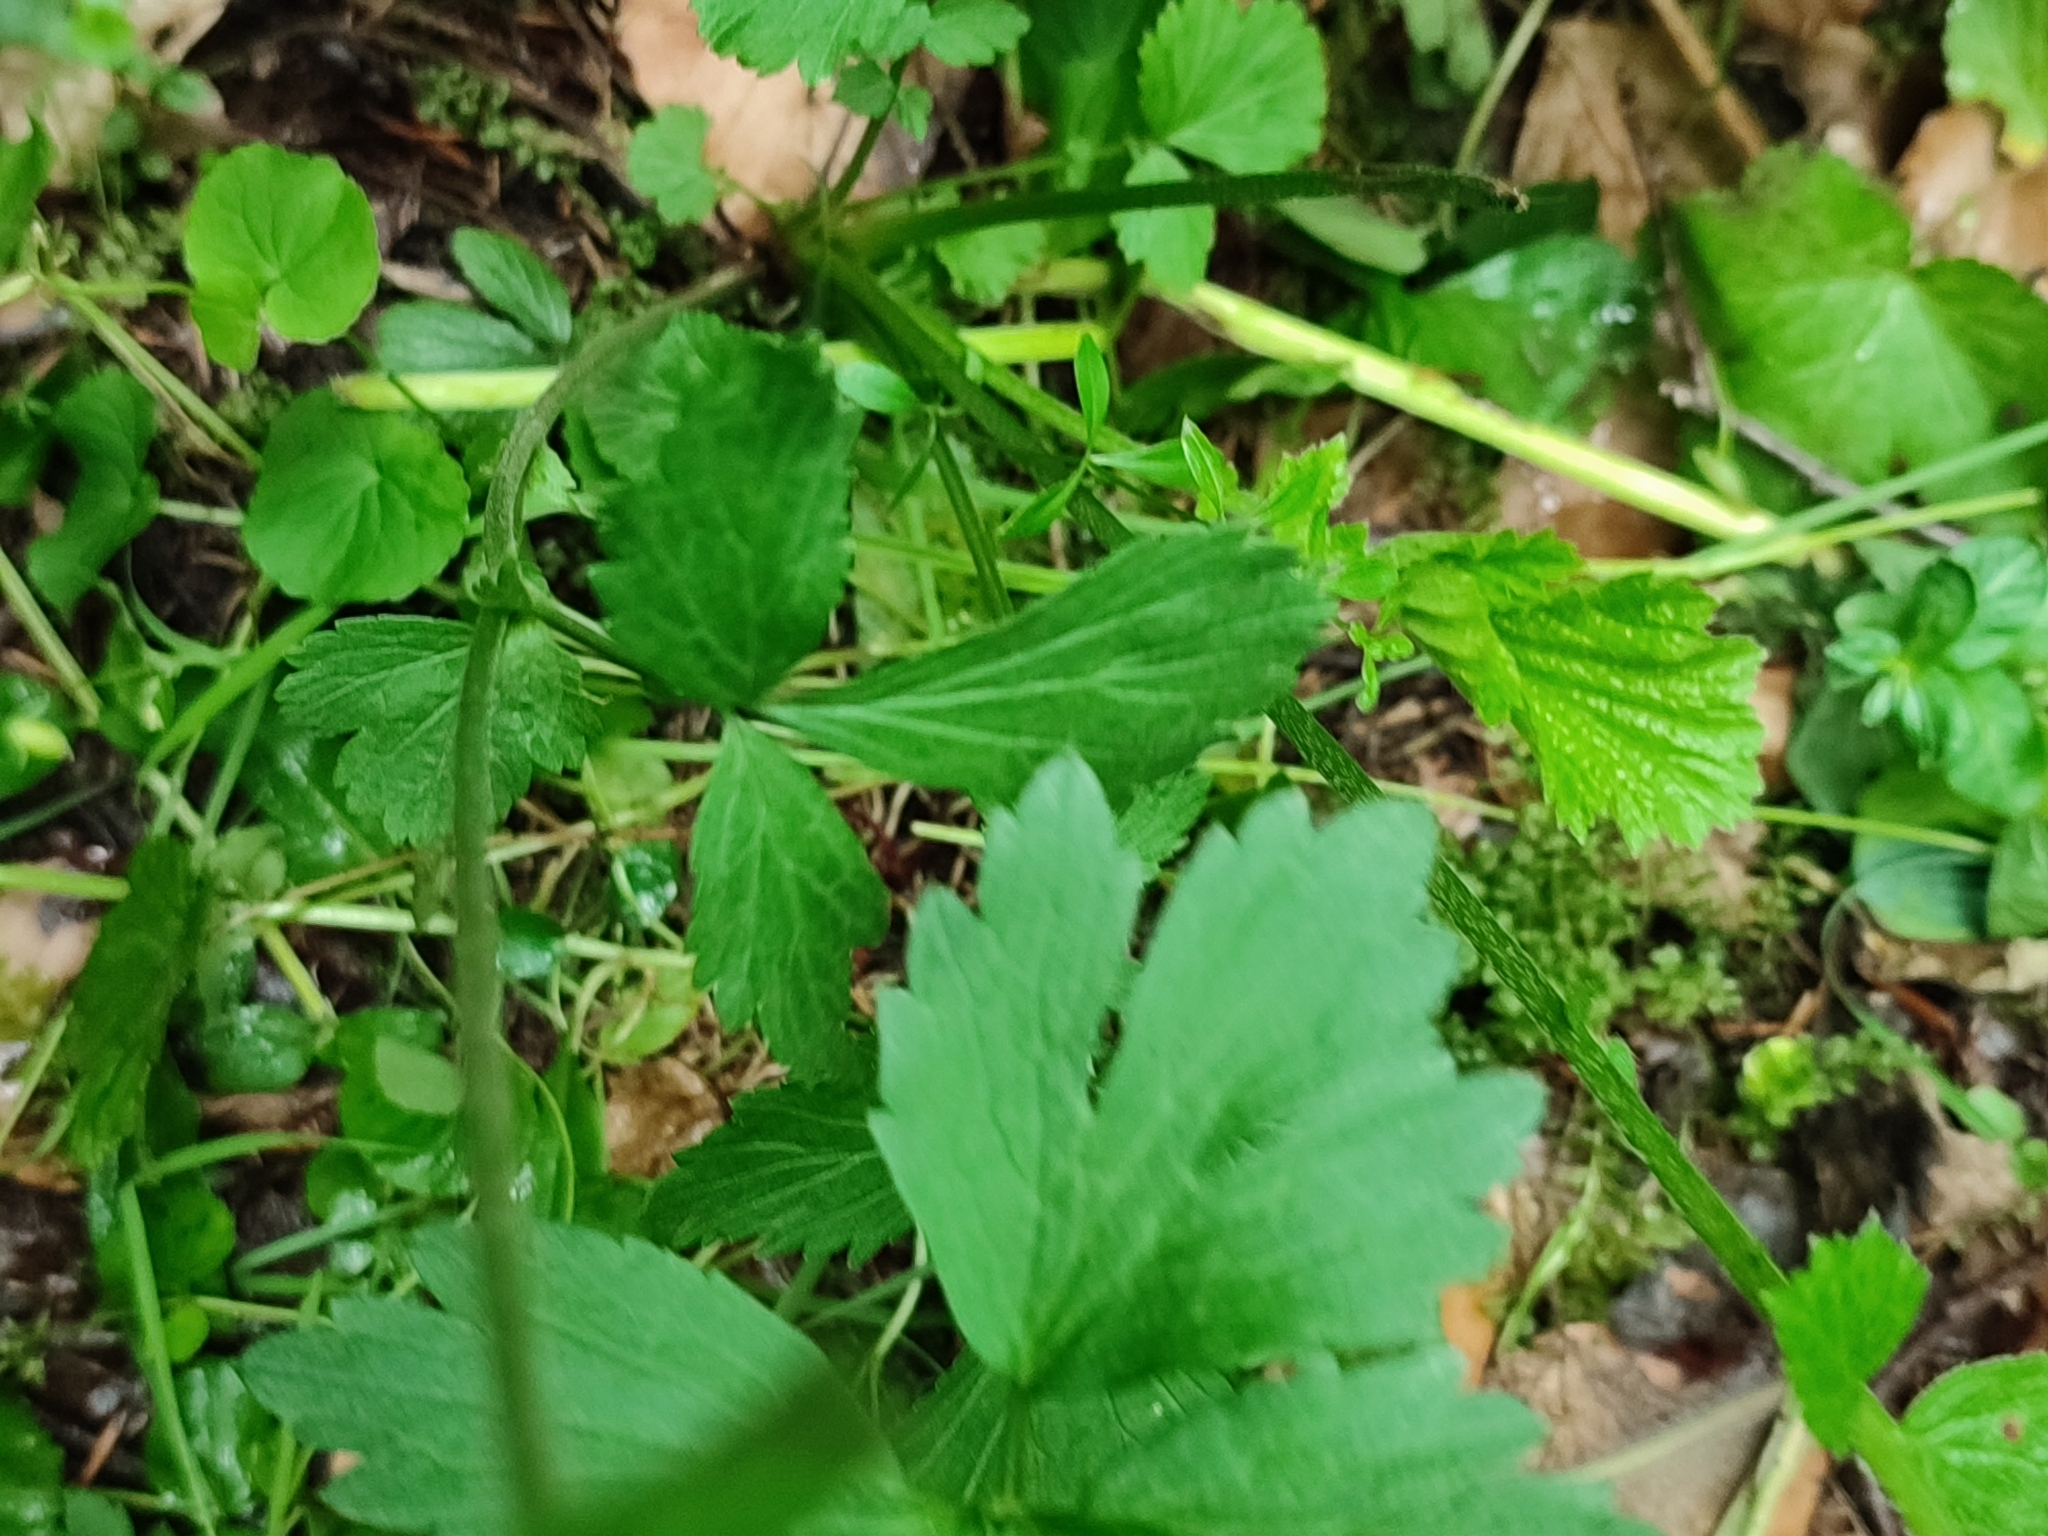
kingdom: Plantae
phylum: Tracheophyta
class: Magnoliopsida
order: Rosales
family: Rosaceae
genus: Geum
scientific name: Geum rivale
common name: Water avens
